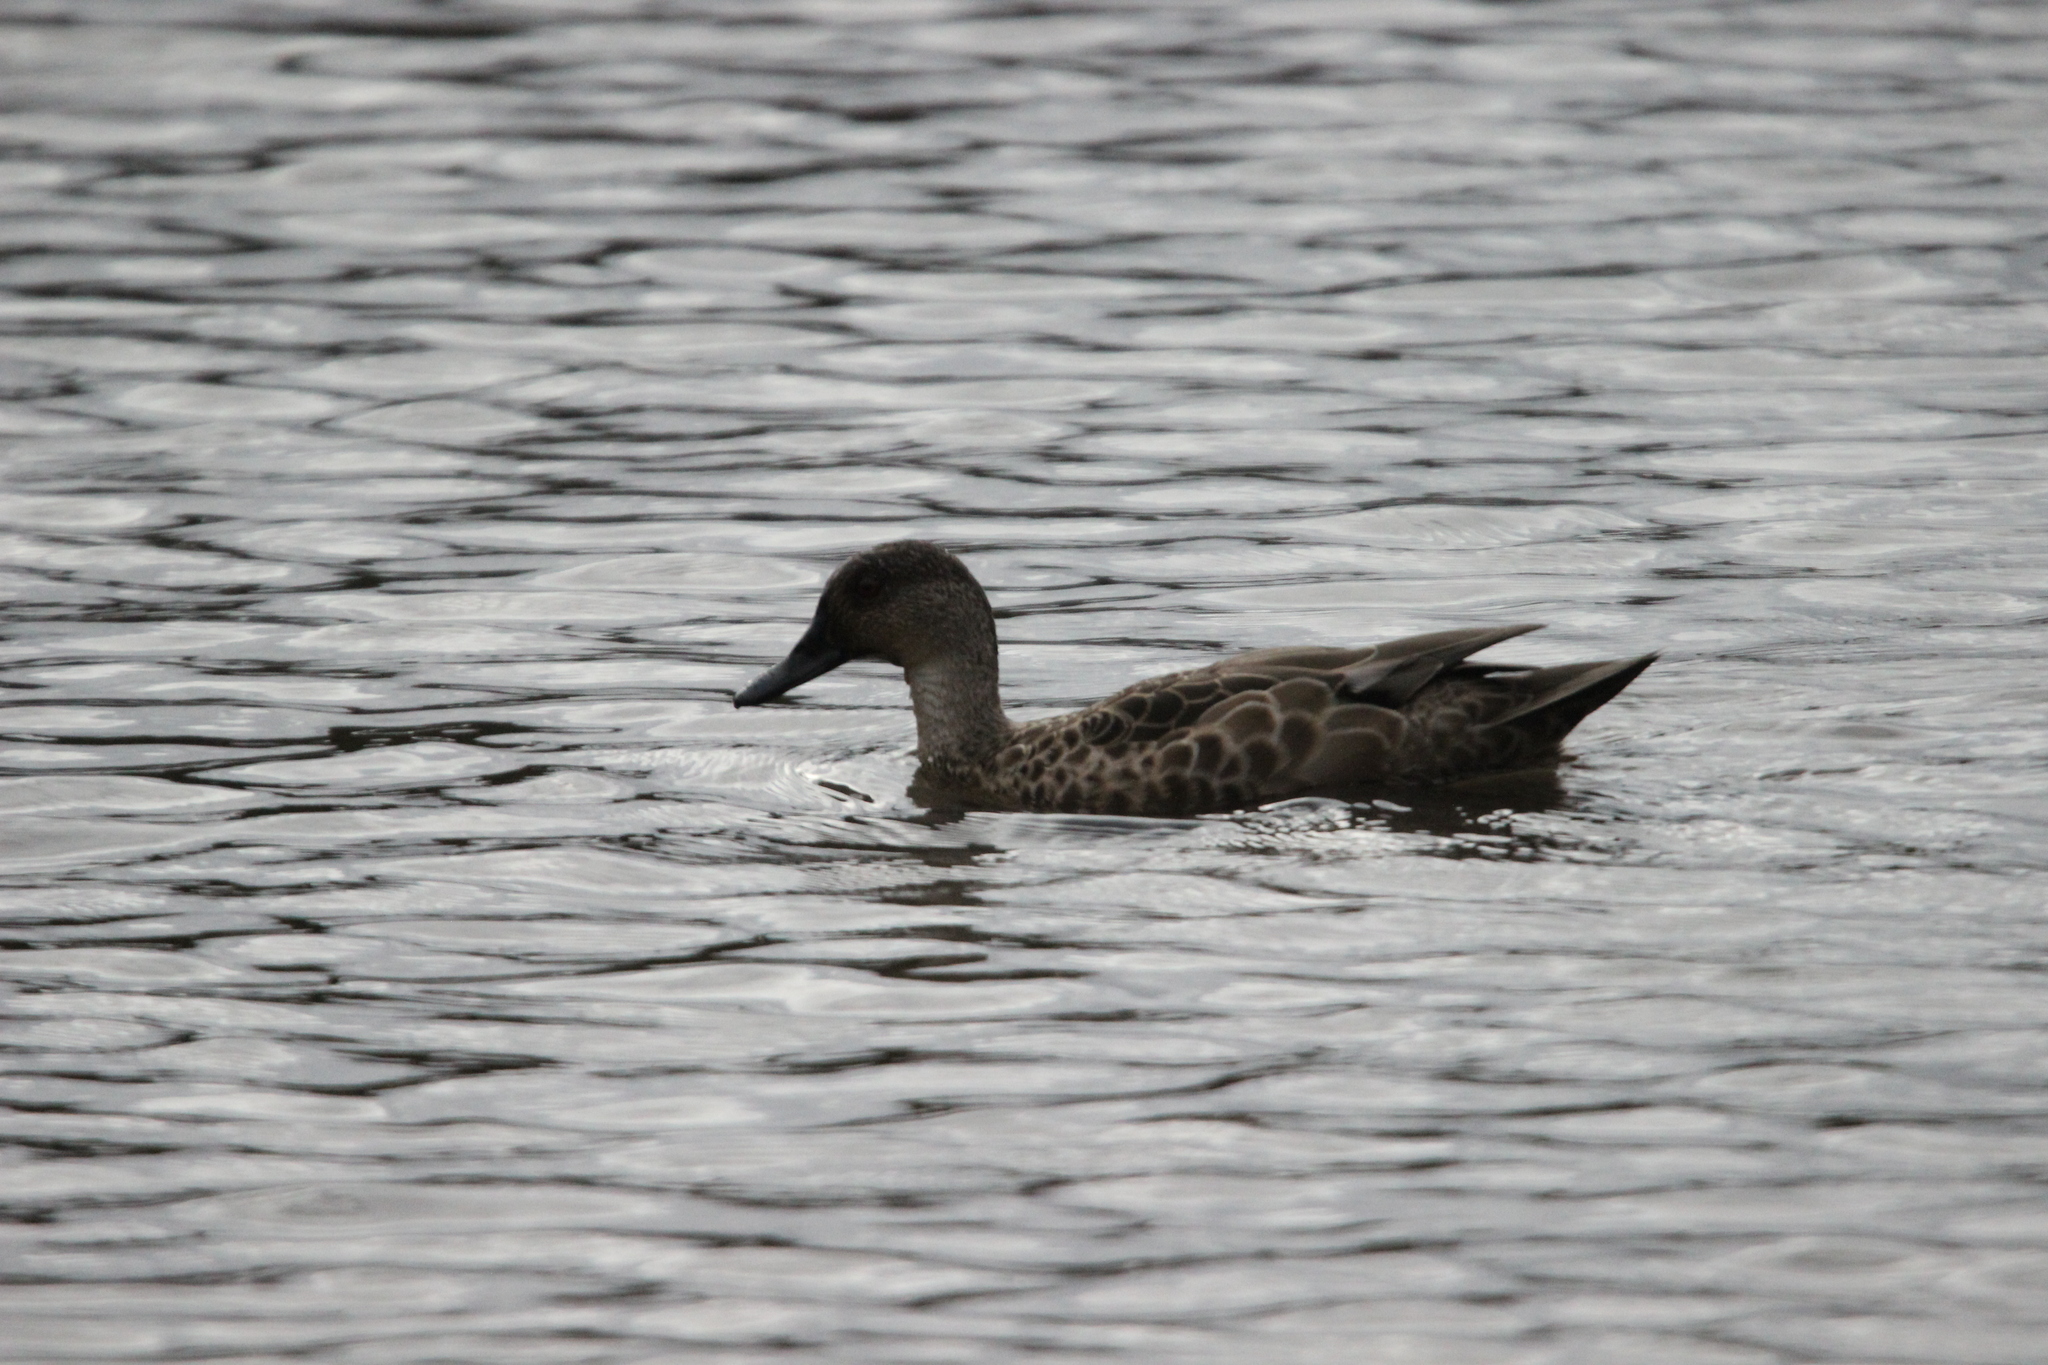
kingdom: Animalia
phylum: Chordata
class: Aves
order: Anseriformes
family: Anatidae
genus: Anas
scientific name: Anas gracilis
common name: Grey teal
